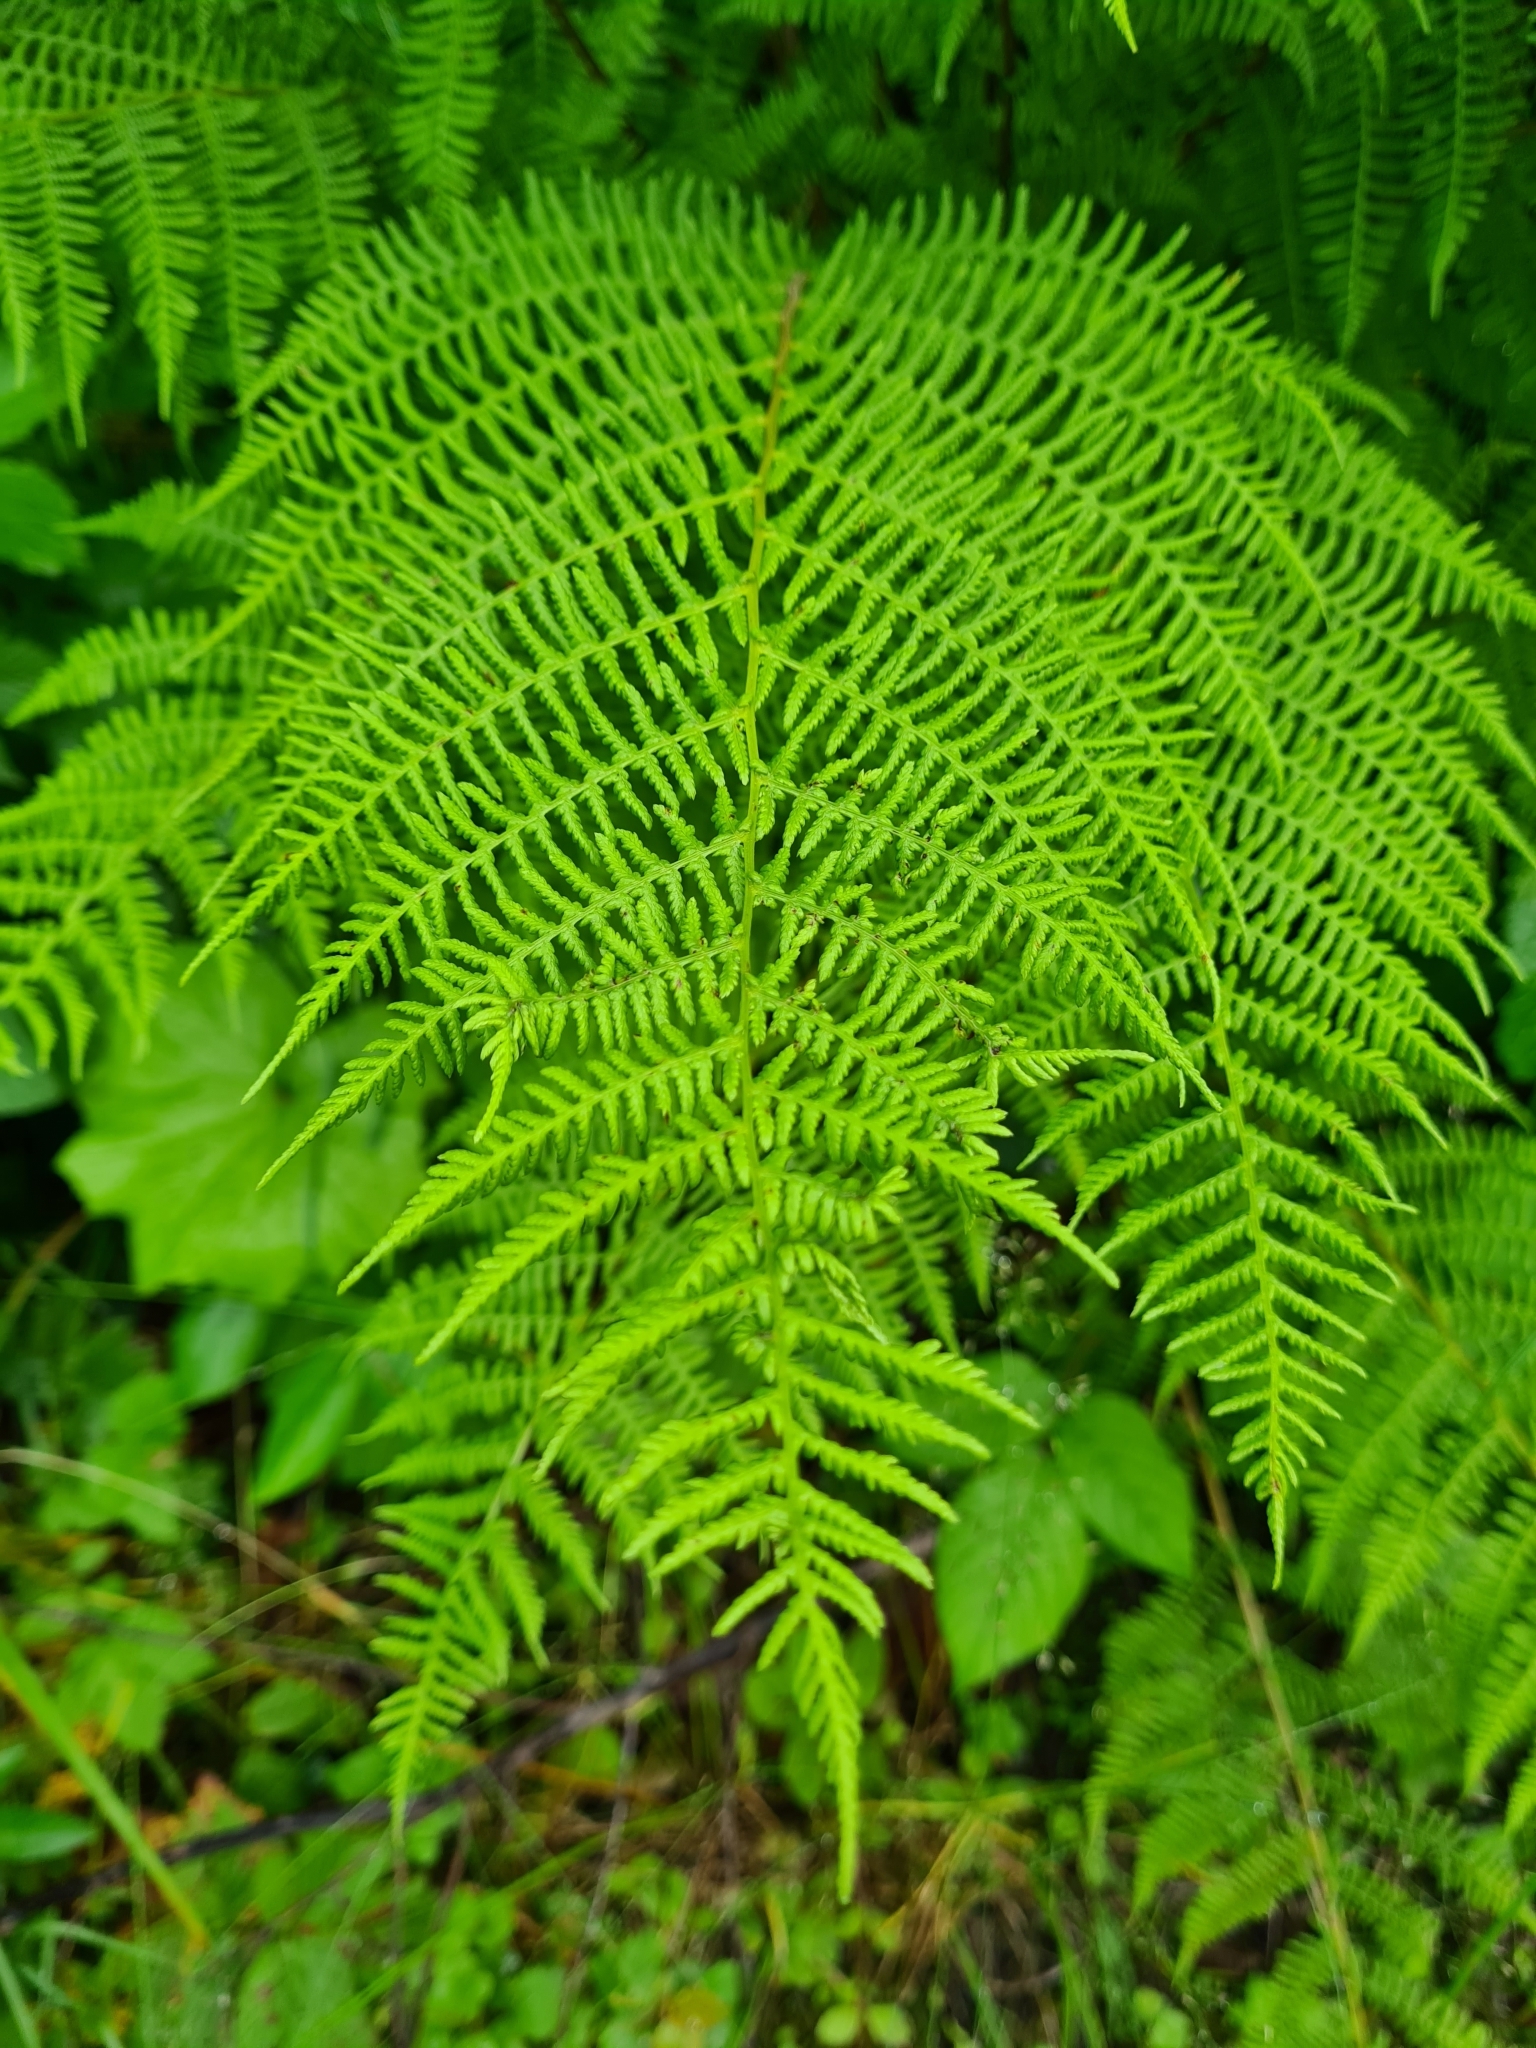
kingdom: Plantae
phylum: Tracheophyta
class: Polypodiopsida
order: Polypodiales
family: Athyriaceae
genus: Athyrium
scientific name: Athyrium filix-femina
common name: Lady fern
